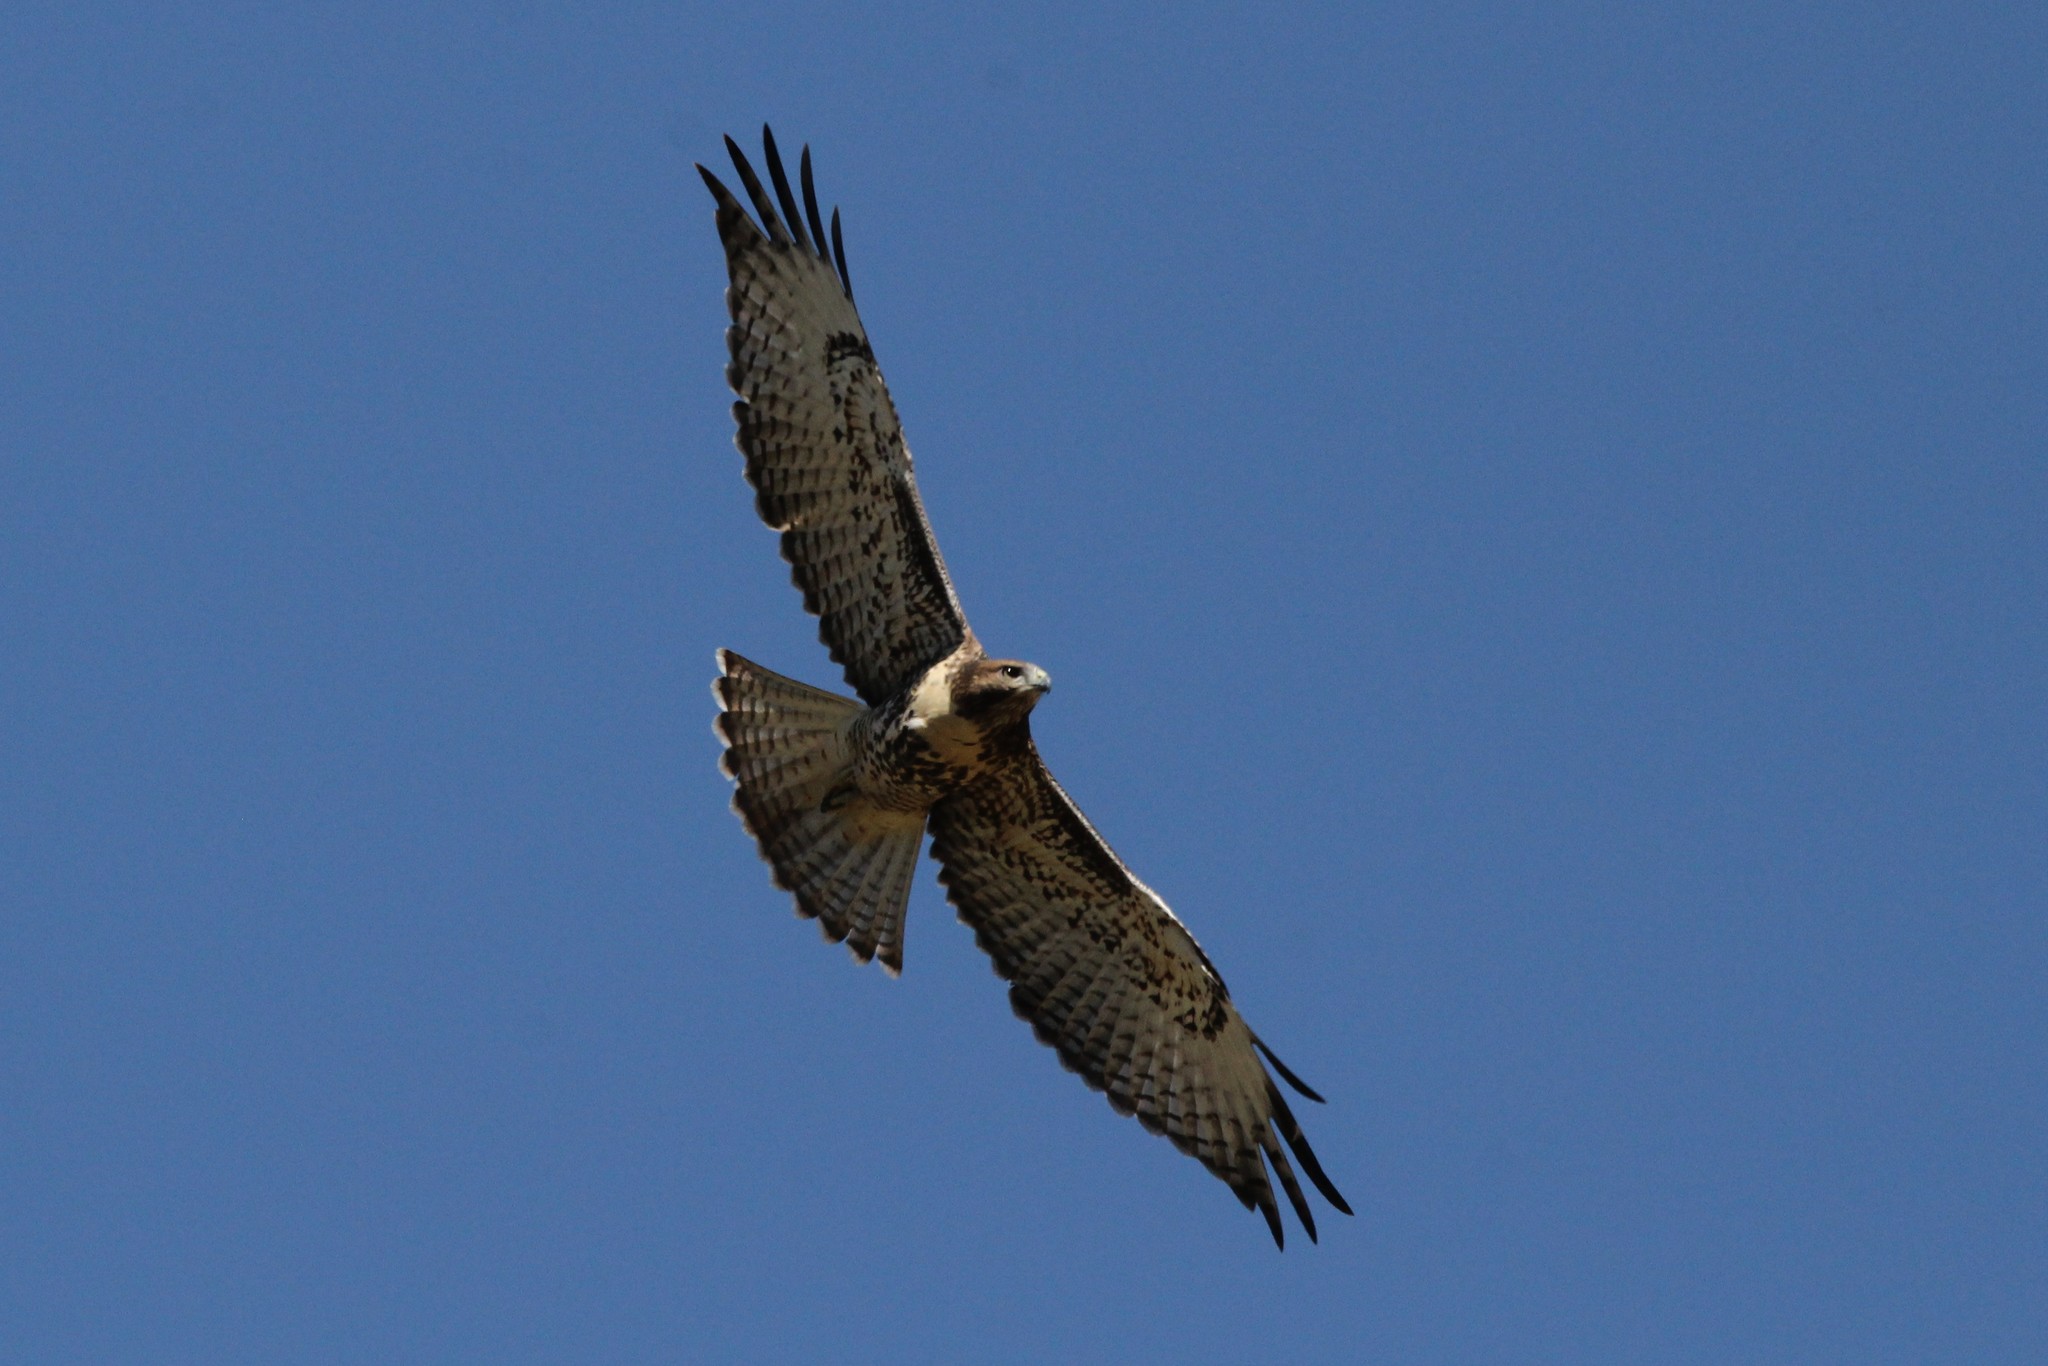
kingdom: Animalia
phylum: Chordata
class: Aves
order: Accipitriformes
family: Accipitridae
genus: Buteo
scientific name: Buteo jamaicensis
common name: Red-tailed hawk
